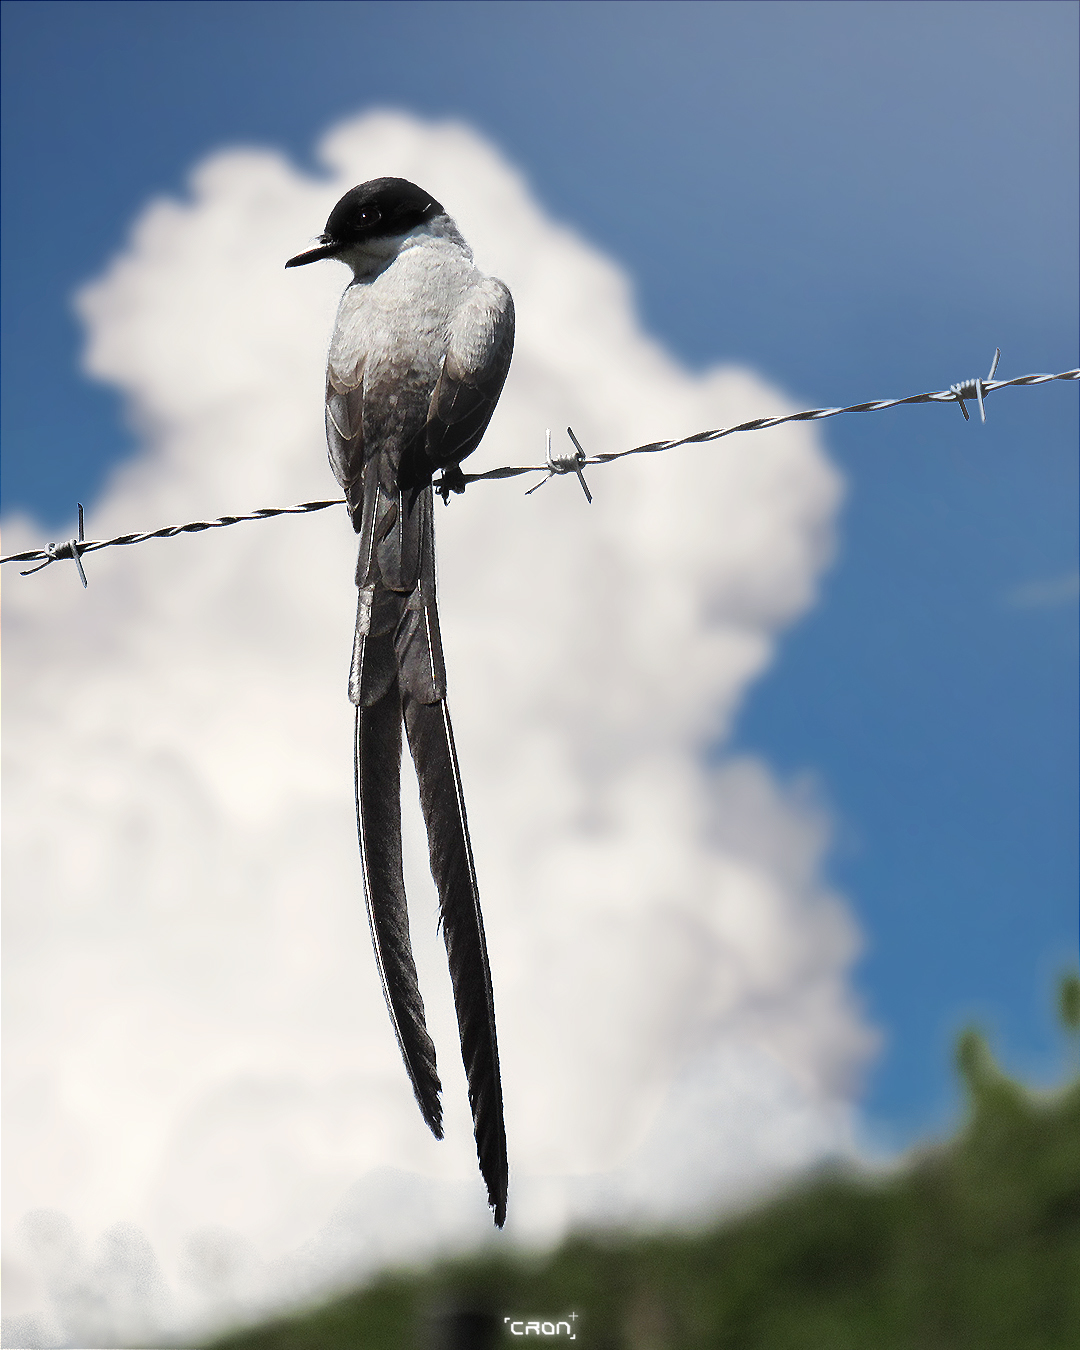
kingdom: Animalia
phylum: Chordata
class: Aves
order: Passeriformes
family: Tyrannidae
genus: Tyrannus
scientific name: Tyrannus savana
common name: Fork-tailed flycatcher
